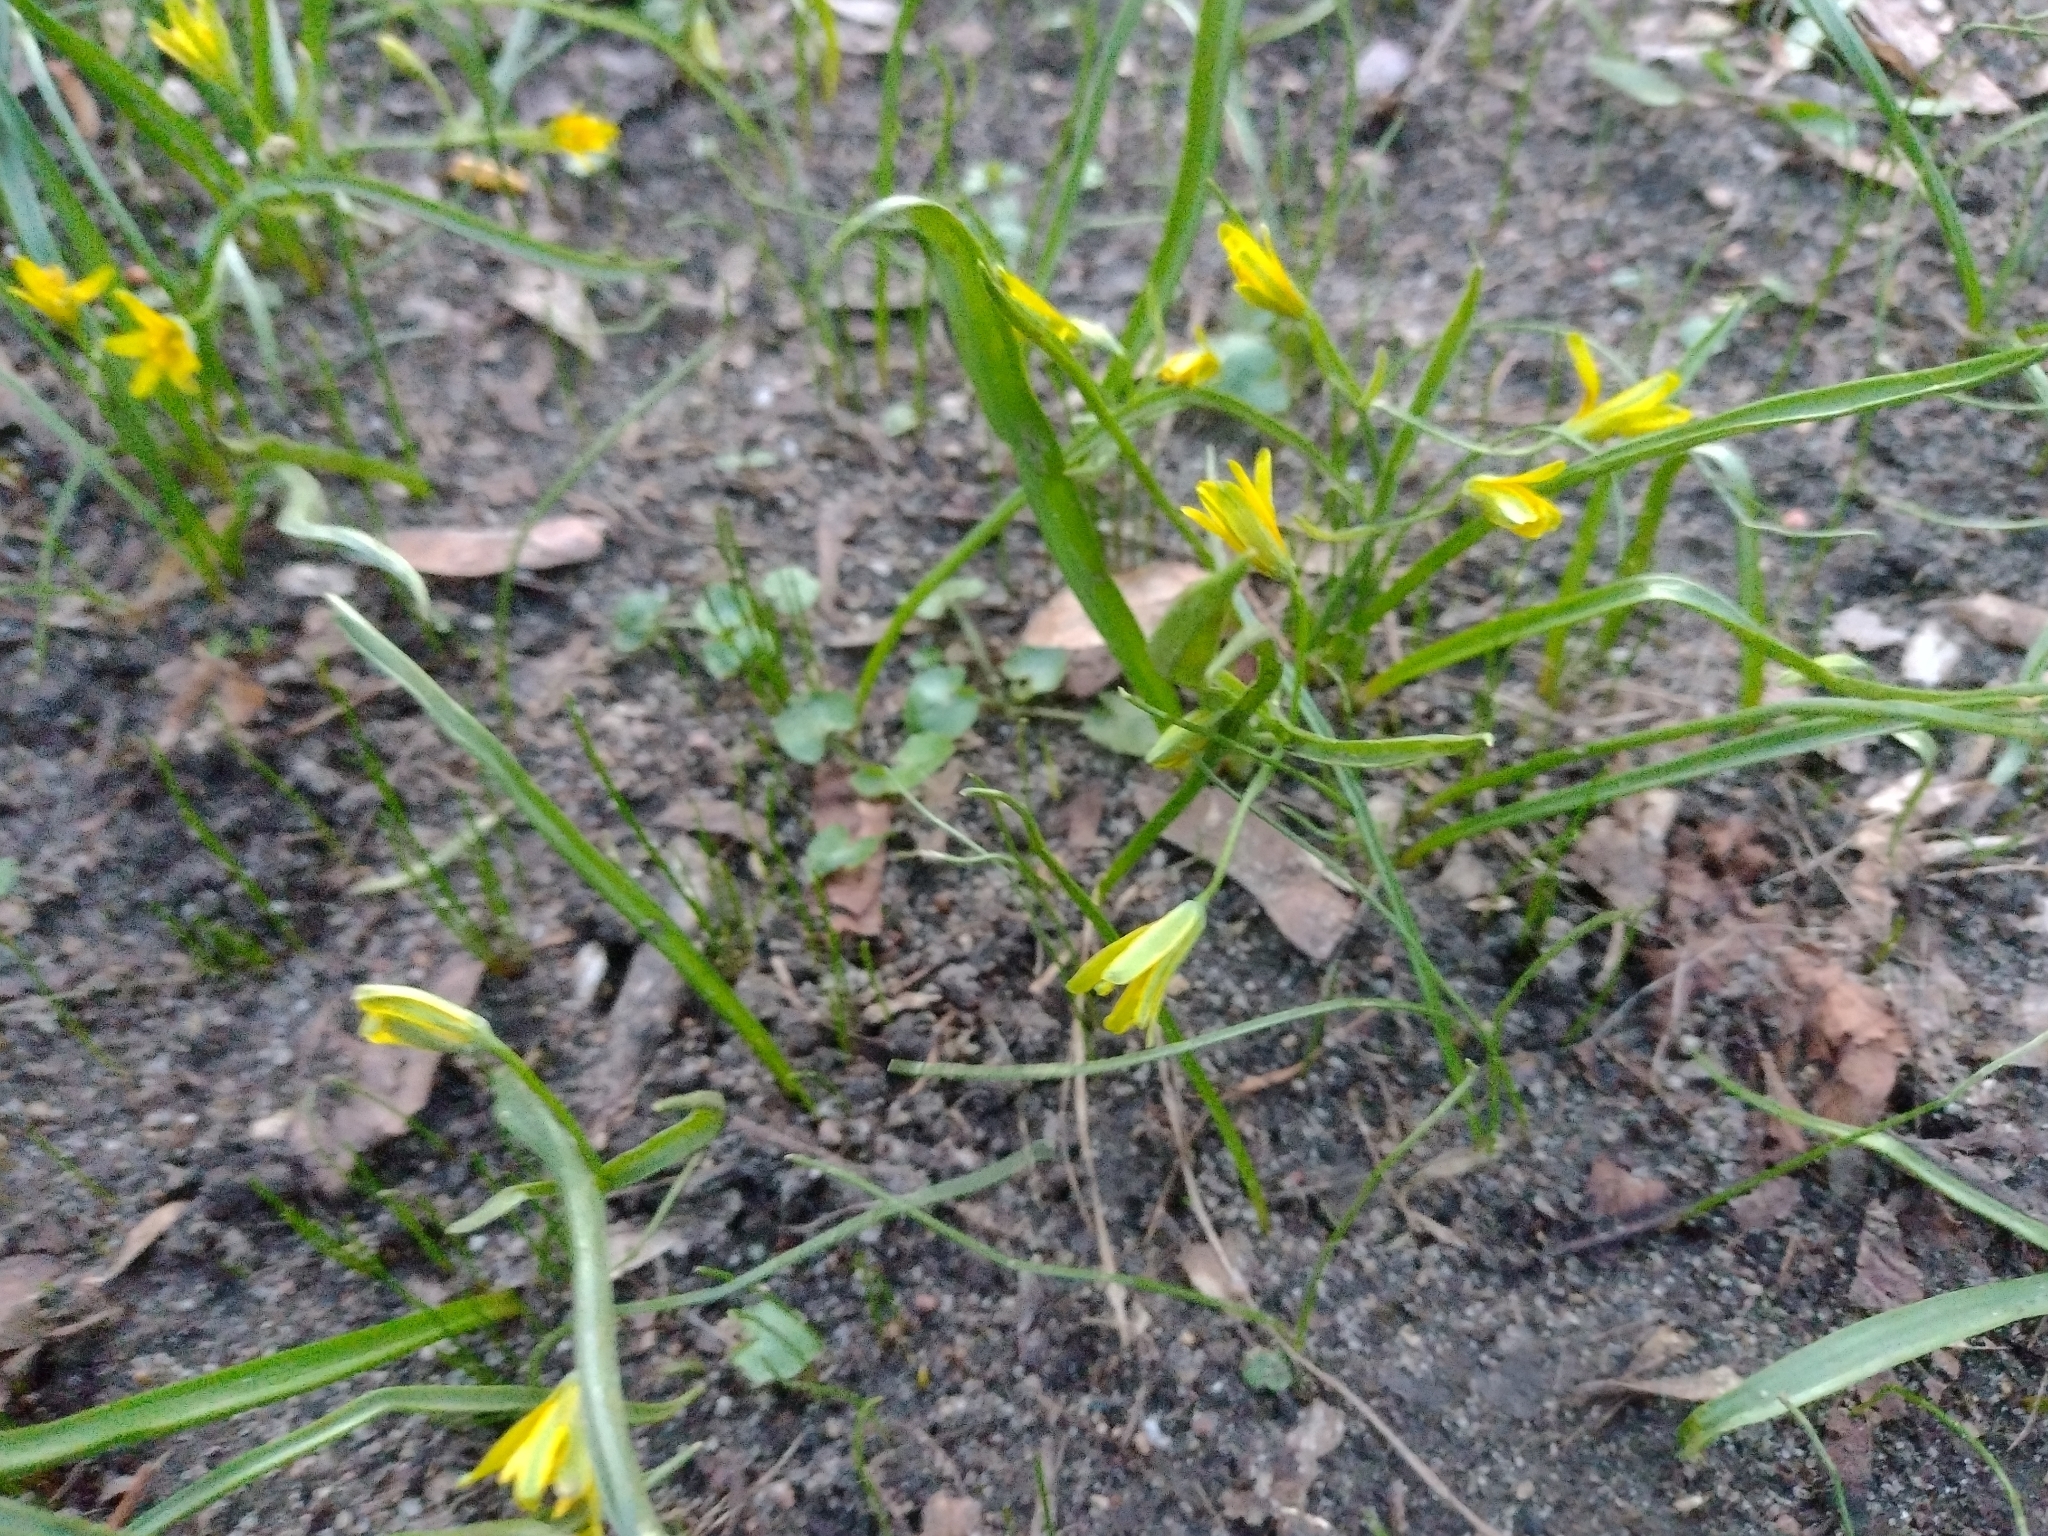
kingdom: Plantae
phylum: Tracheophyta
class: Liliopsida
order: Liliales
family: Liliaceae
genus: Gagea
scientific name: Gagea lutea
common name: Yellow star-of-bethlehem
